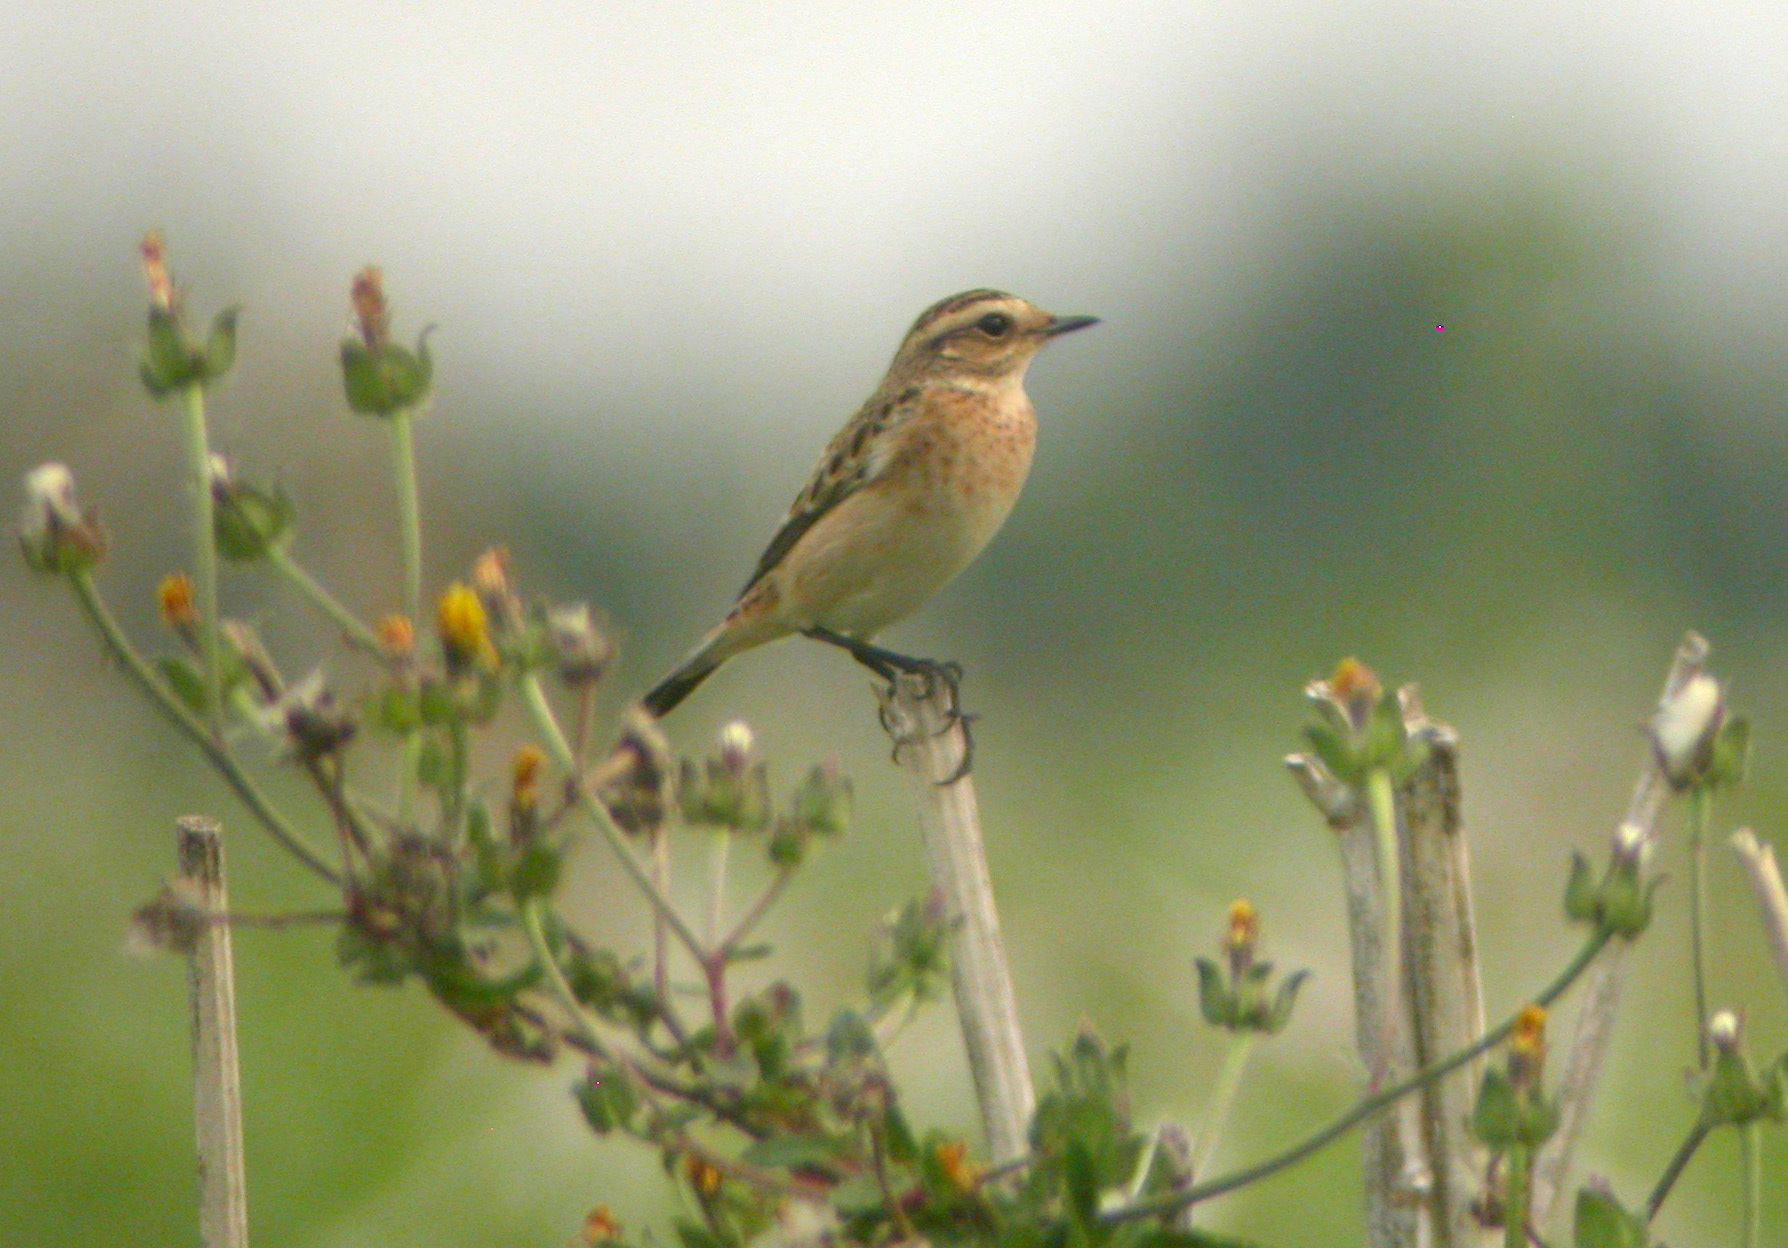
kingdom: Animalia
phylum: Chordata
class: Aves
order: Passeriformes
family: Muscicapidae
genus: Saxicola
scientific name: Saxicola rubetra
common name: Whinchat
